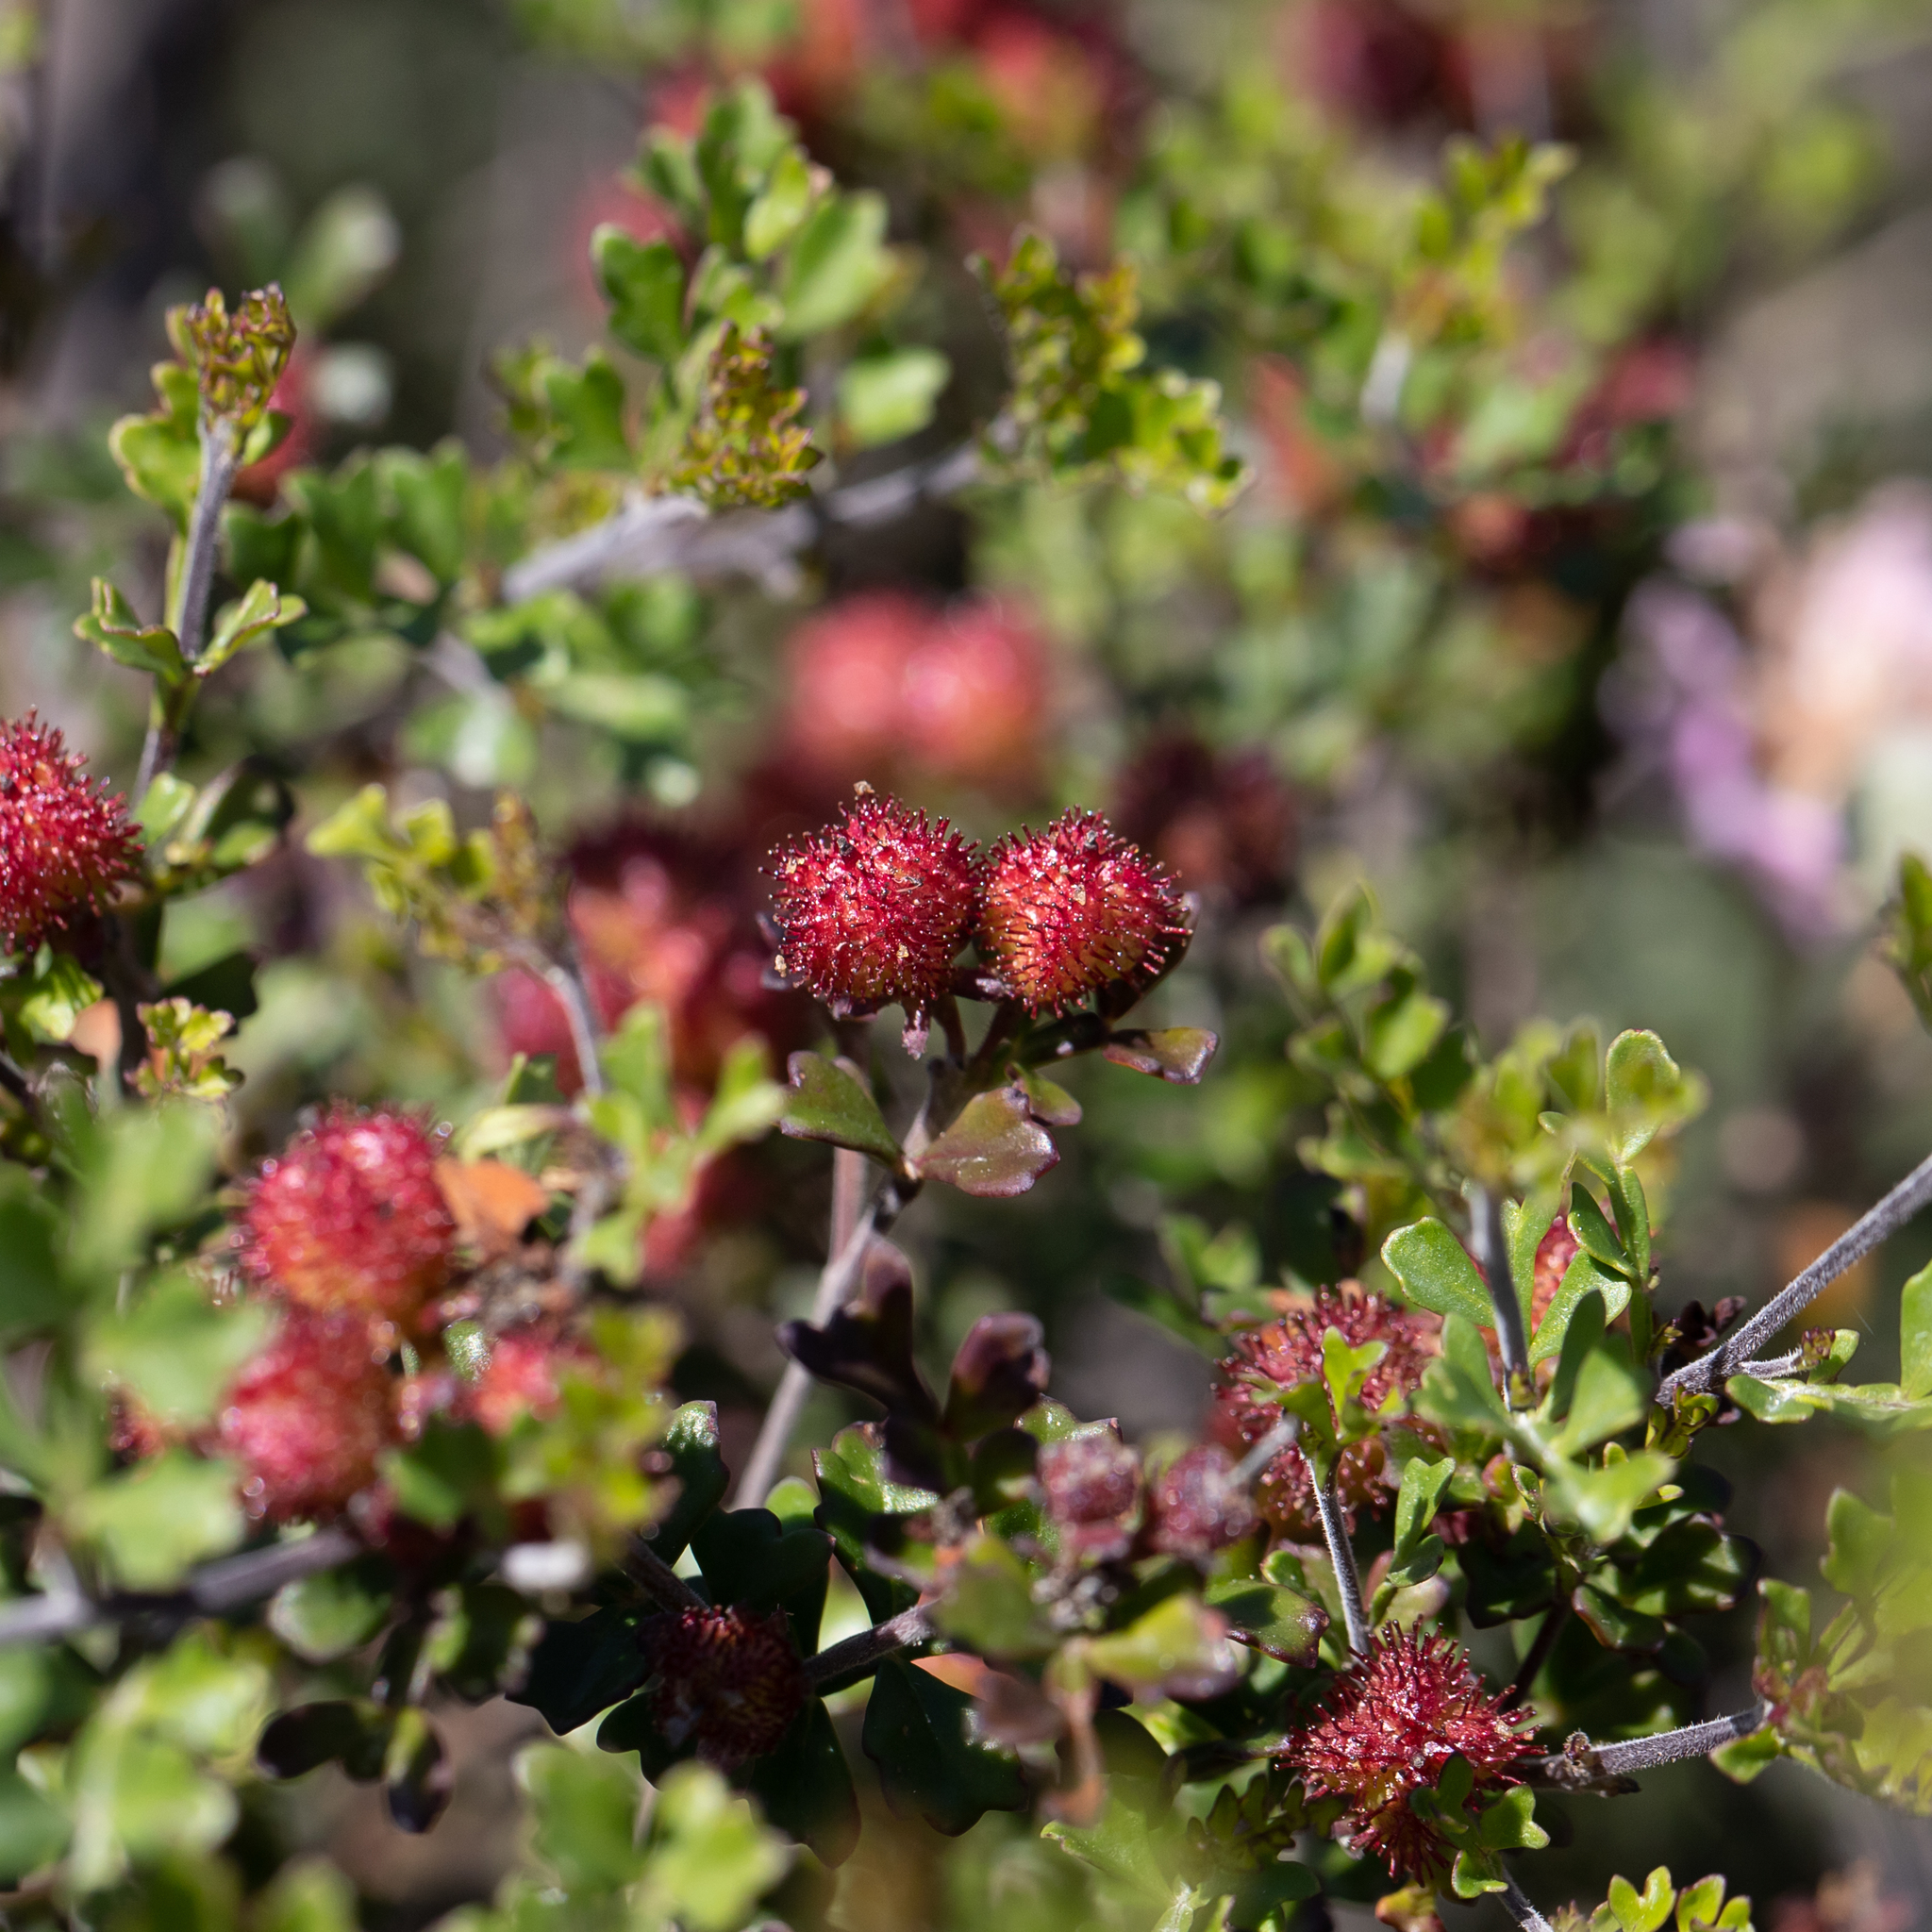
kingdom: Plantae
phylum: Tracheophyta
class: Magnoliopsida
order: Sapindales
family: Sapindaceae
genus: Dodonaea
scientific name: Dodonaea humilis
